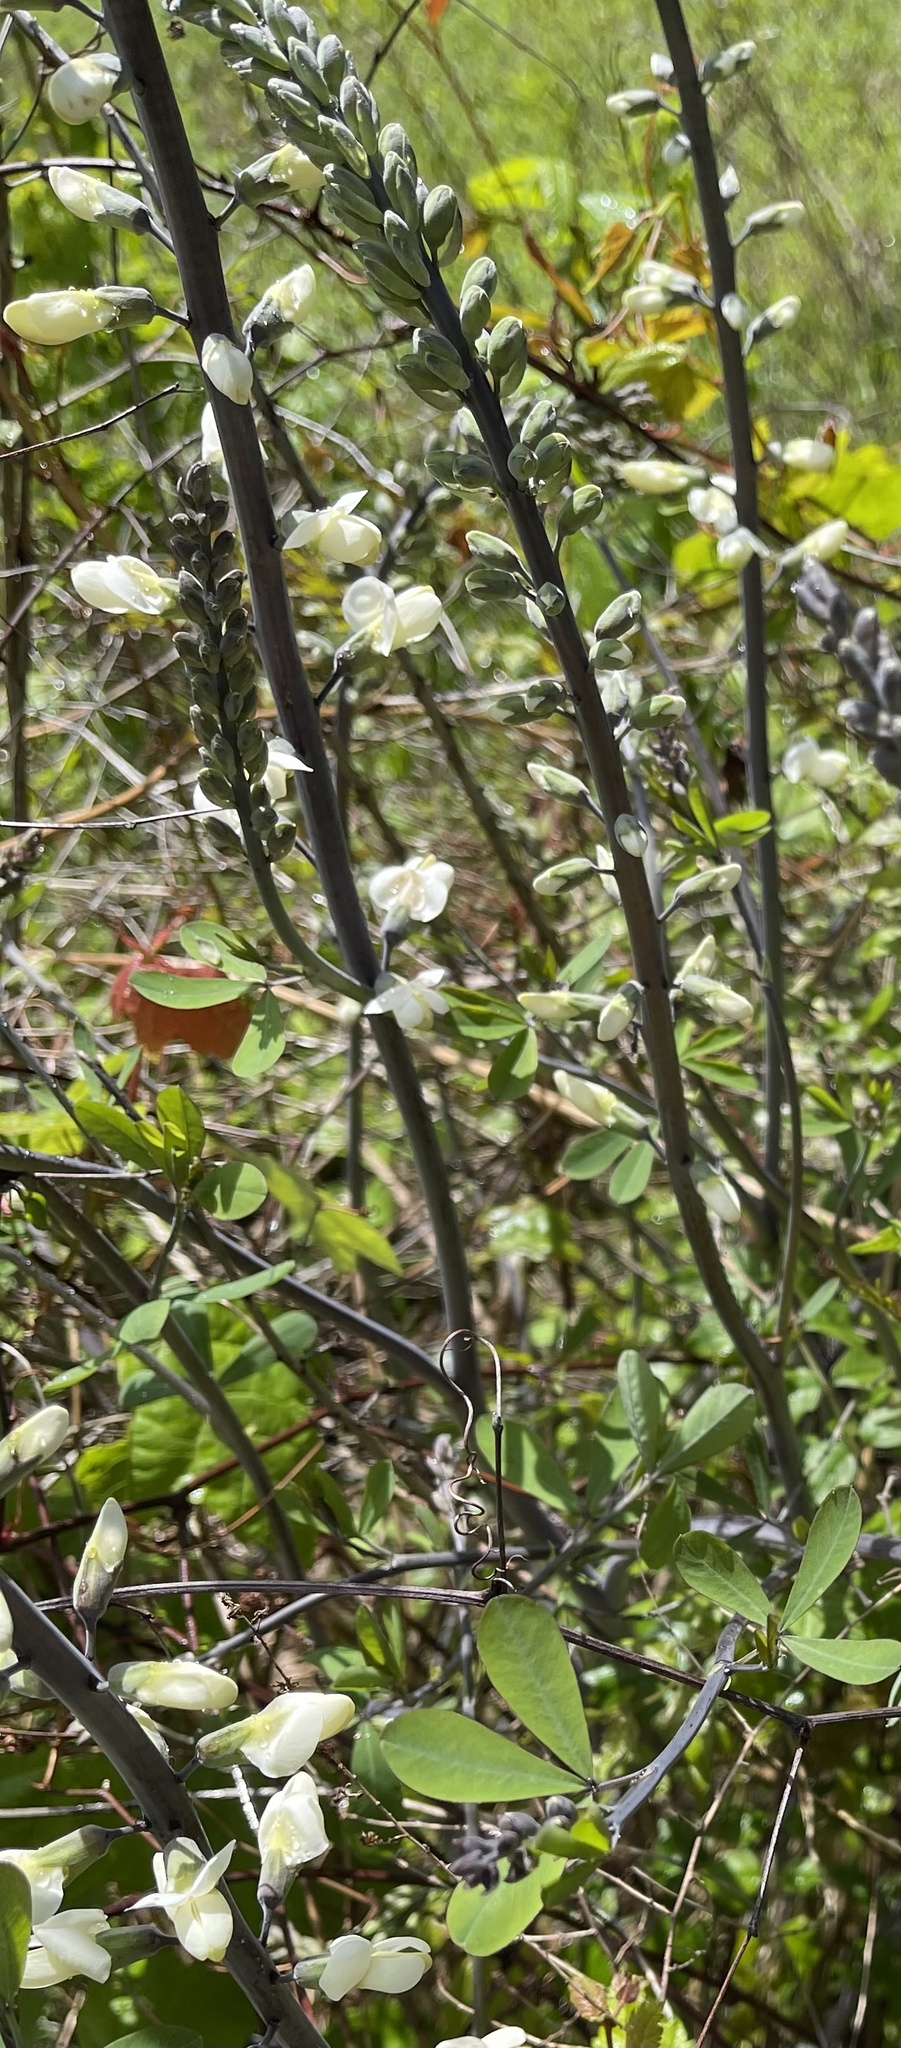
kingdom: Plantae
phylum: Tracheophyta
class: Magnoliopsida
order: Fabales
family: Fabaceae
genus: Baptisia
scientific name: Baptisia alba
